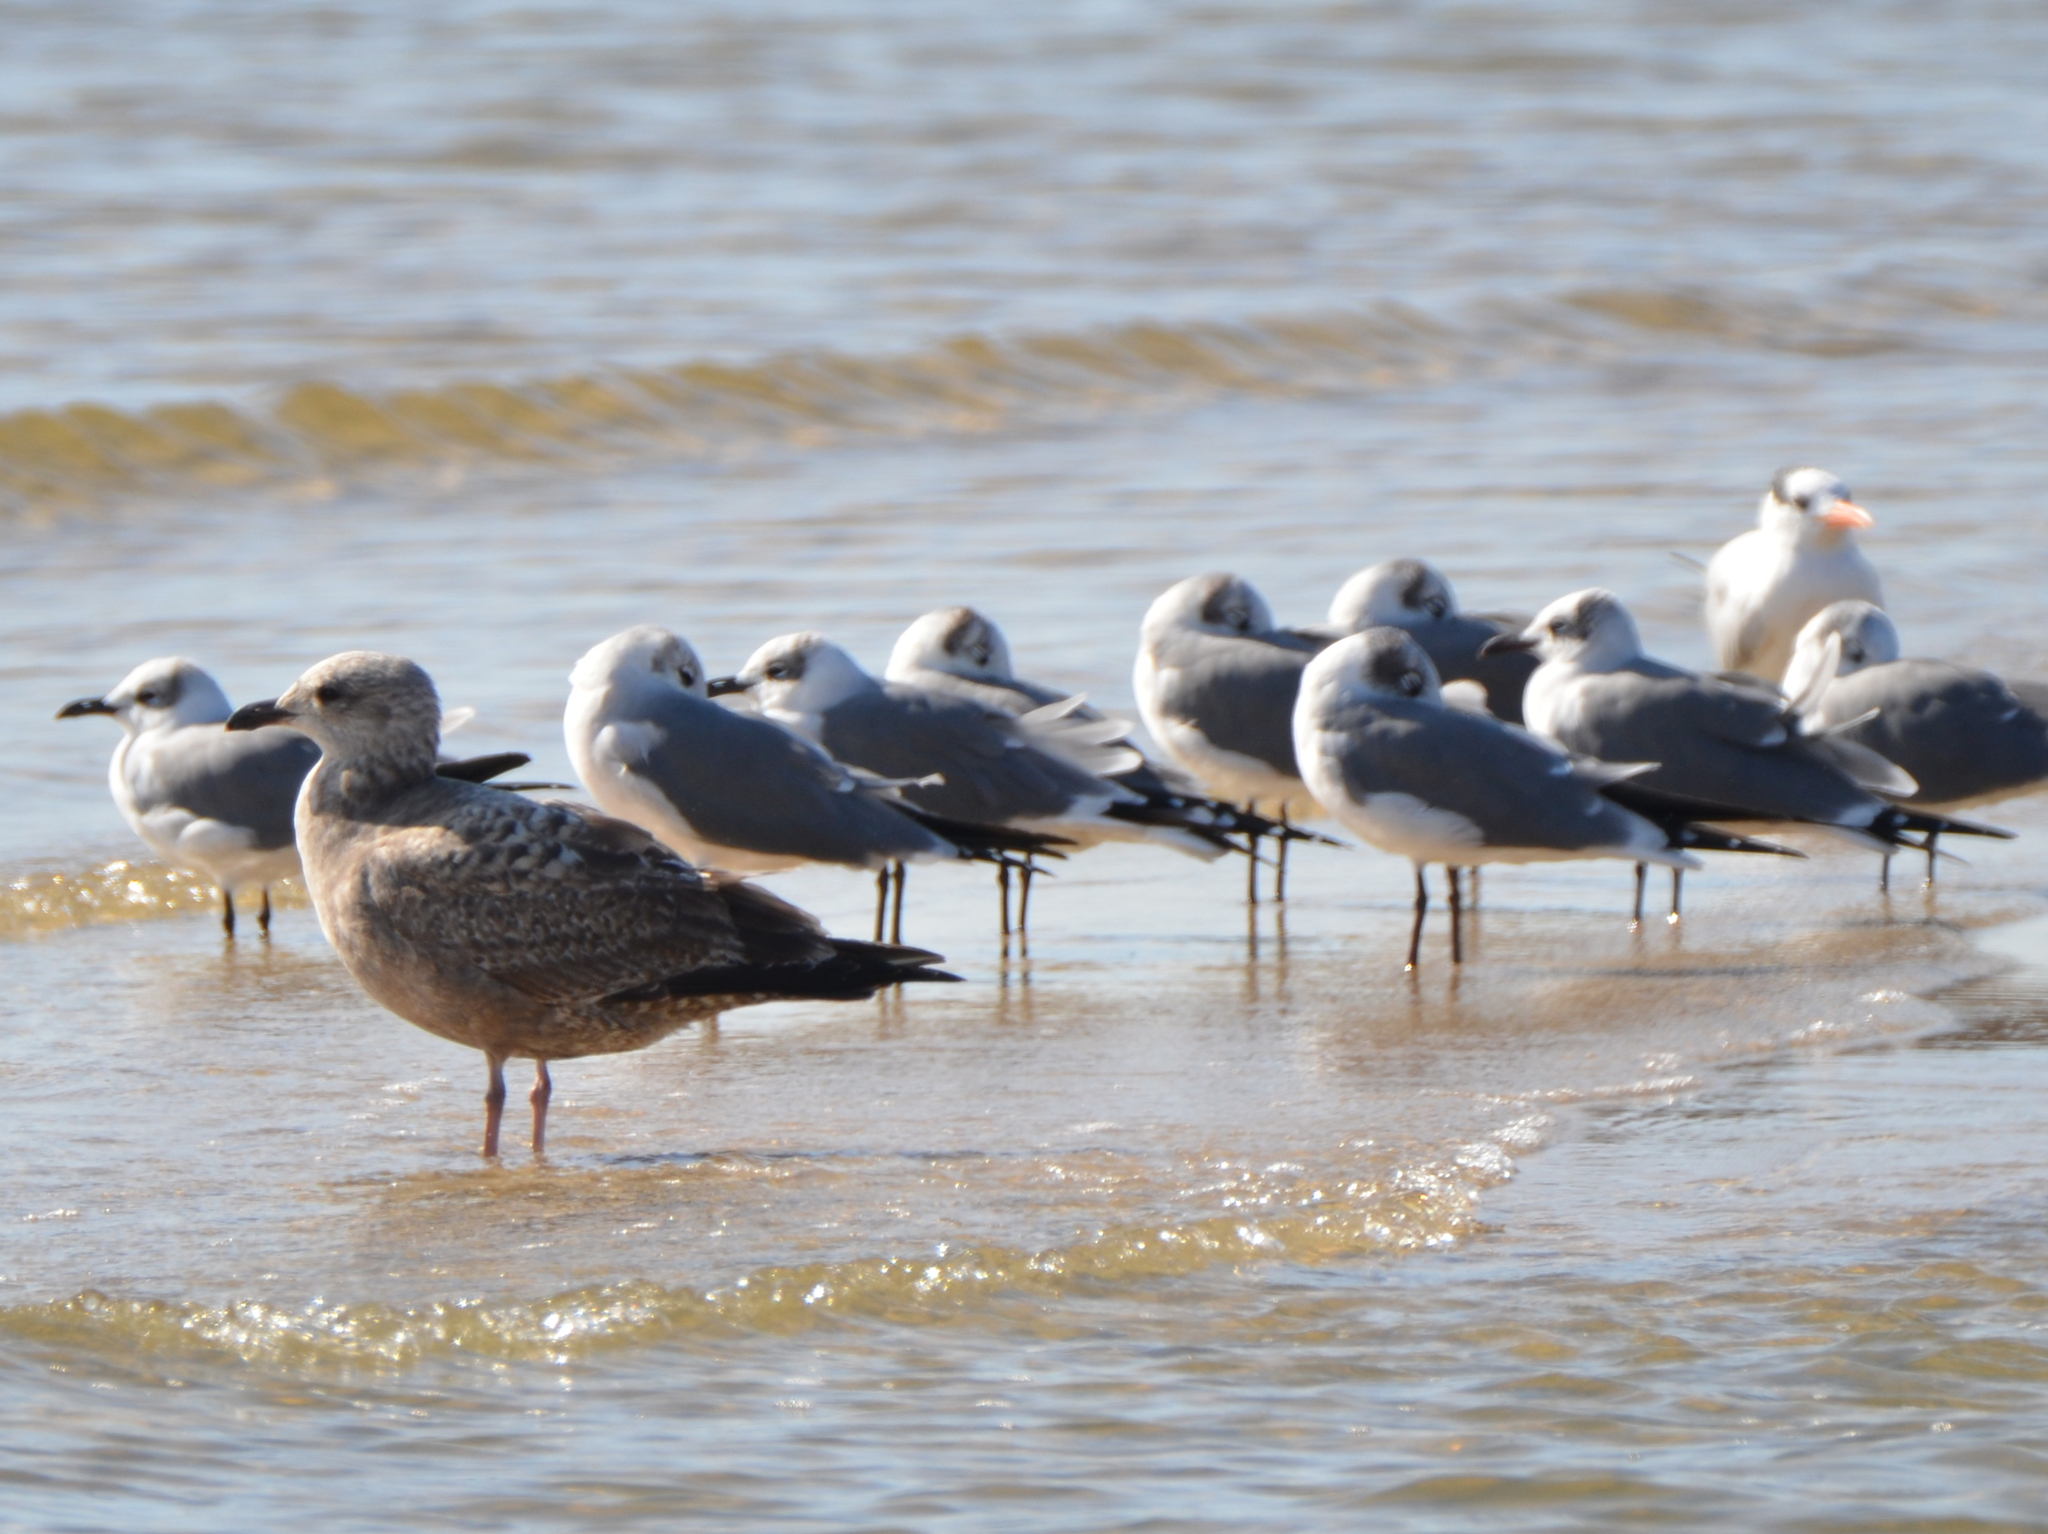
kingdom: Animalia
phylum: Chordata
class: Aves
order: Charadriiformes
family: Laridae
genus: Larus
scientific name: Larus argentatus
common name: Herring gull
